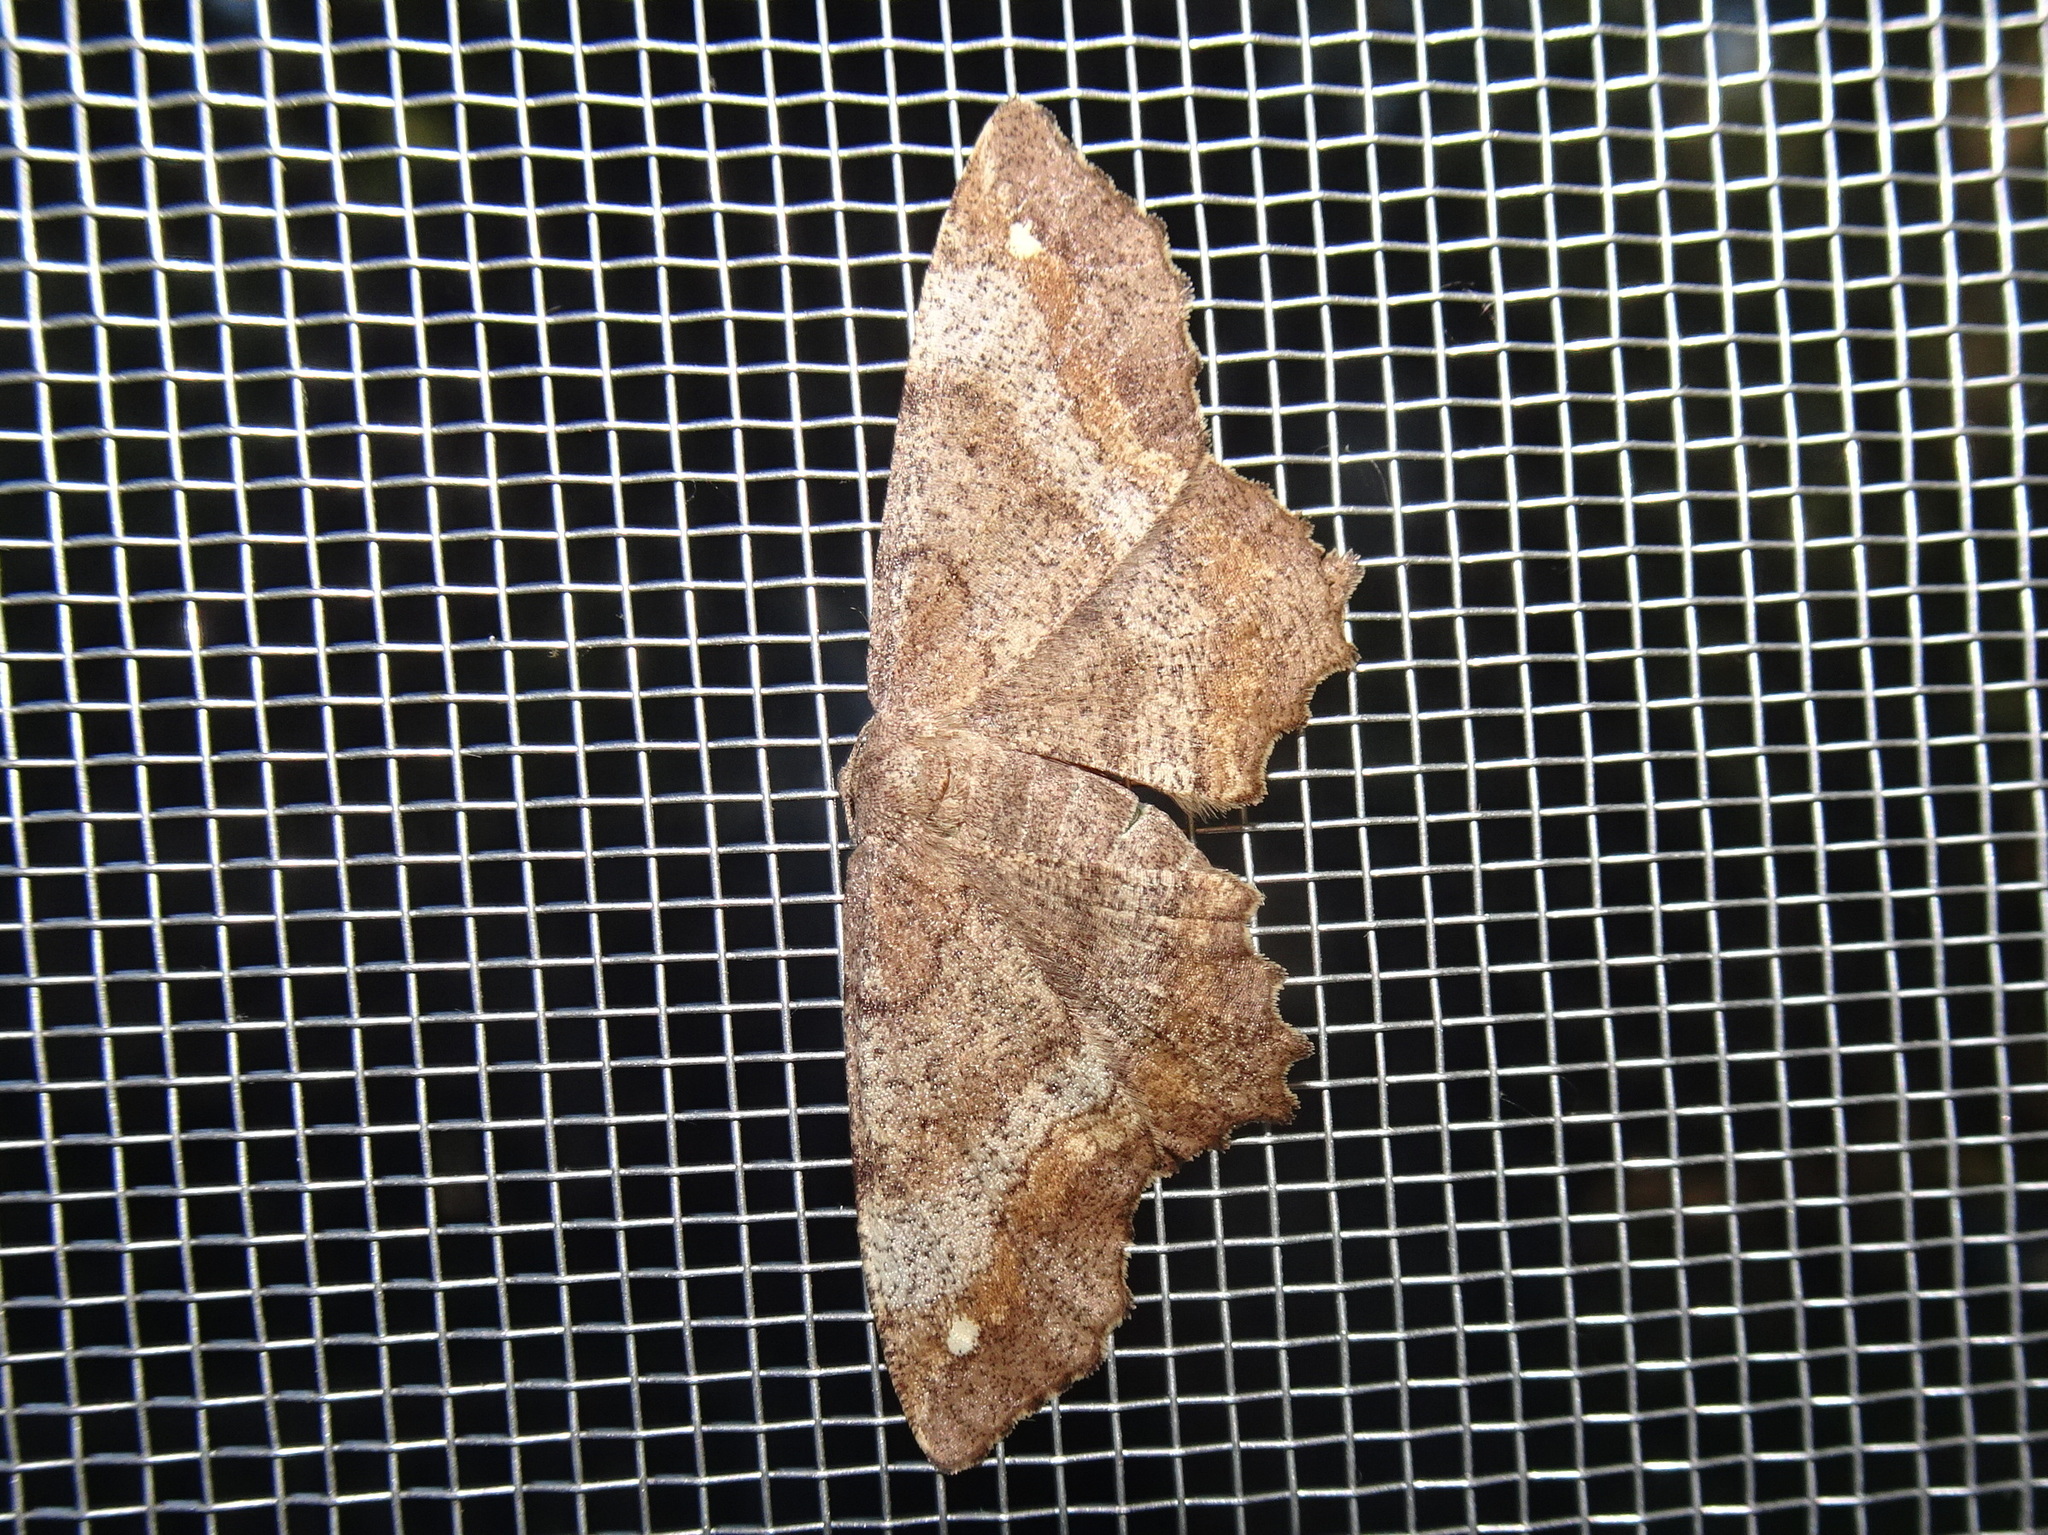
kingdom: Animalia
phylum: Arthropoda
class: Insecta
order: Lepidoptera
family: Geometridae
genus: Hypagyrtis
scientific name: Hypagyrtis unipunctata
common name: One-spotted variant
